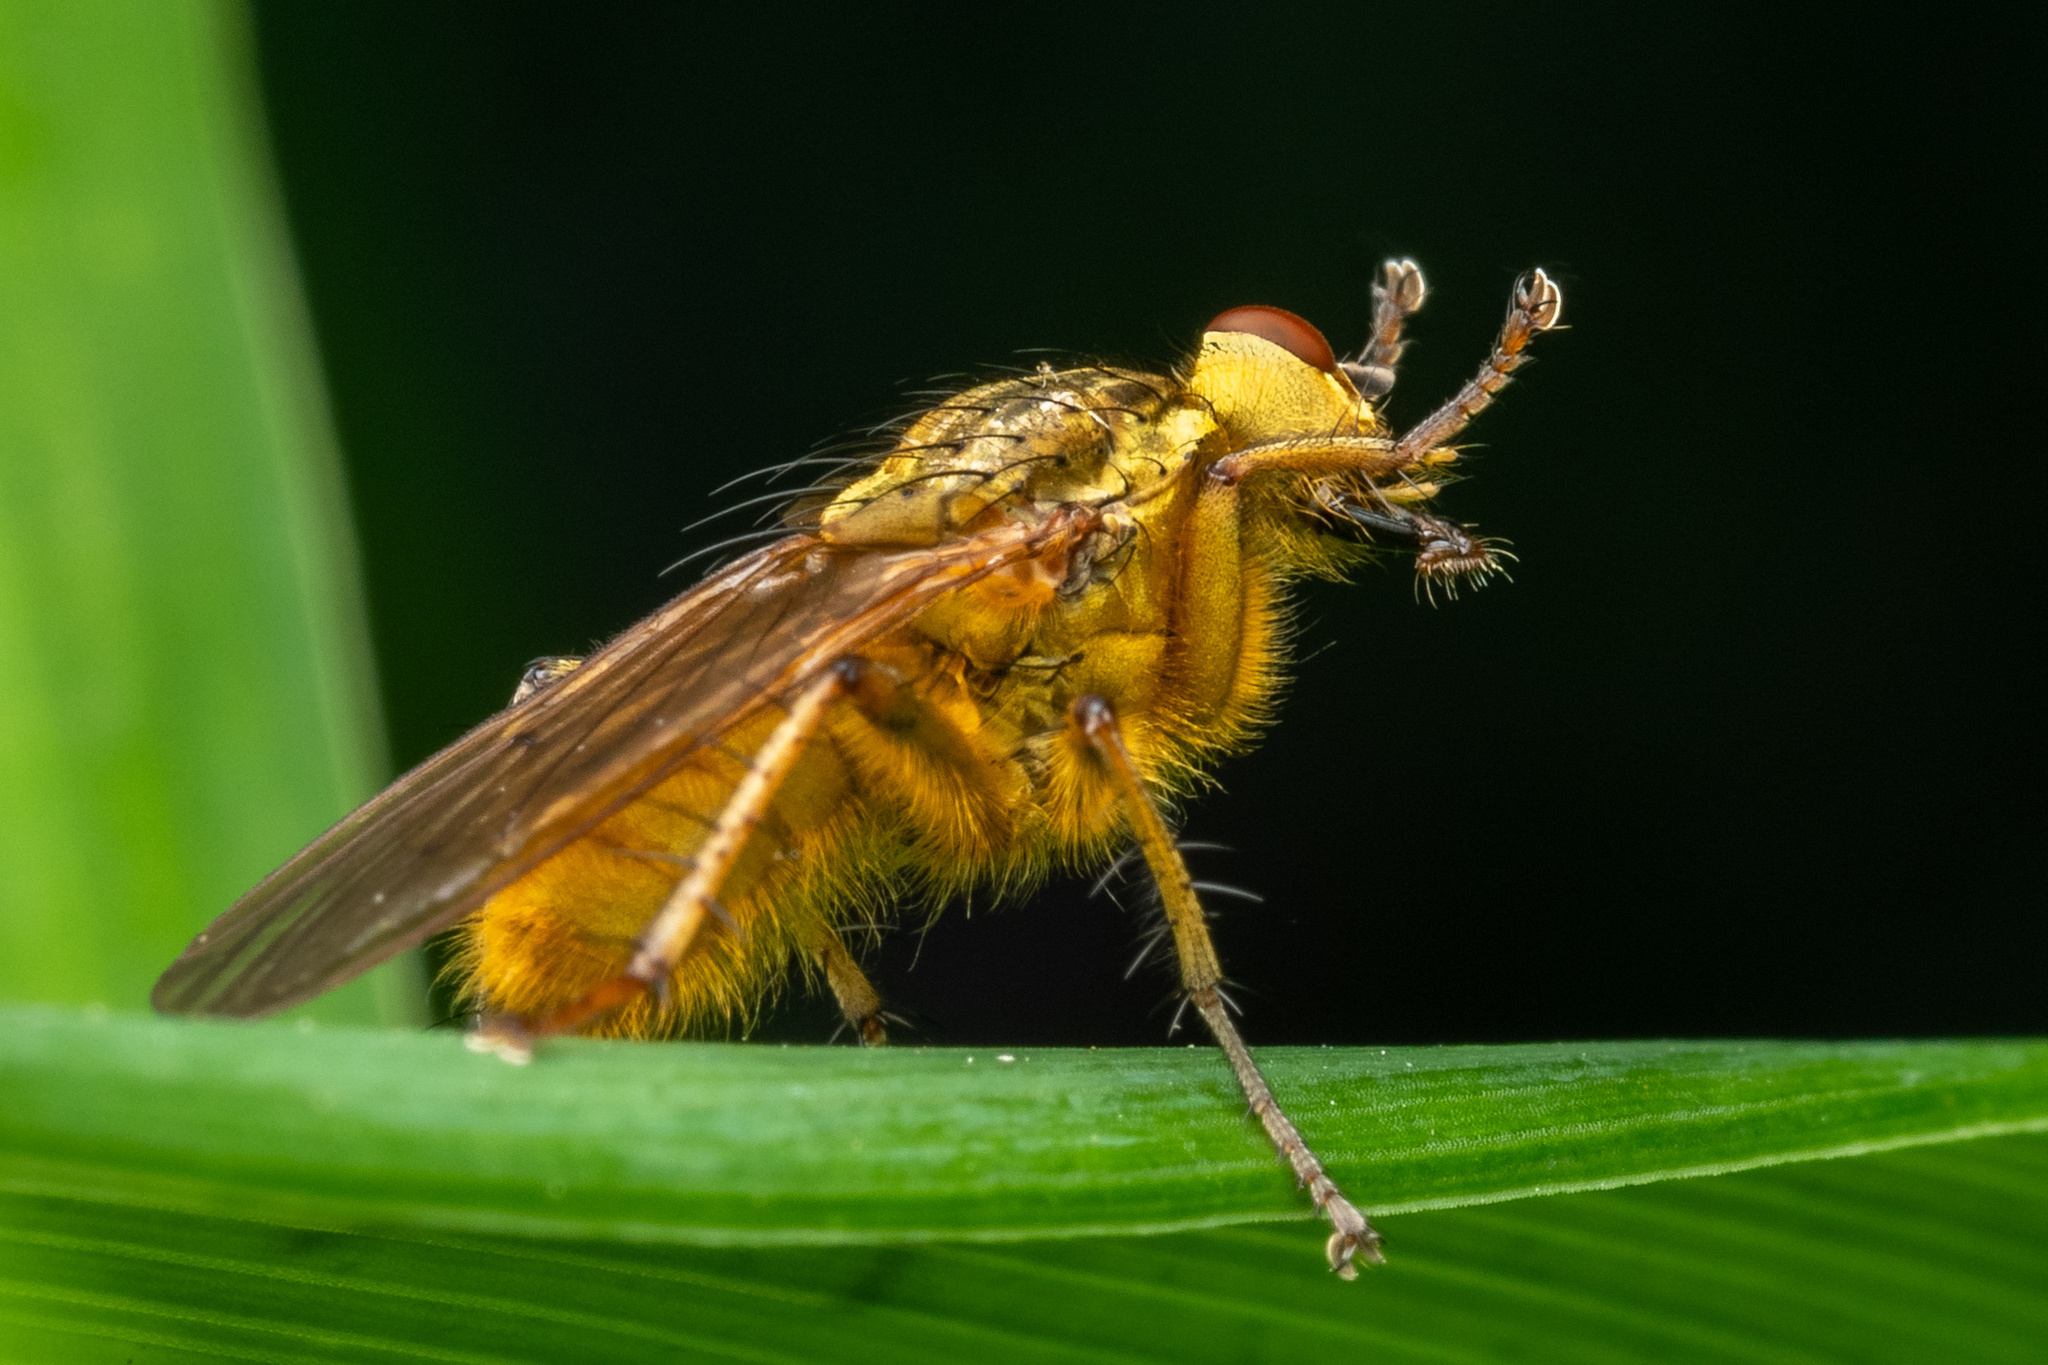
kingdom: Animalia
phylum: Arthropoda
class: Insecta
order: Diptera
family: Scathophagidae
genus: Scathophaga
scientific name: Scathophaga stercoraria
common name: Yellow dung fly
